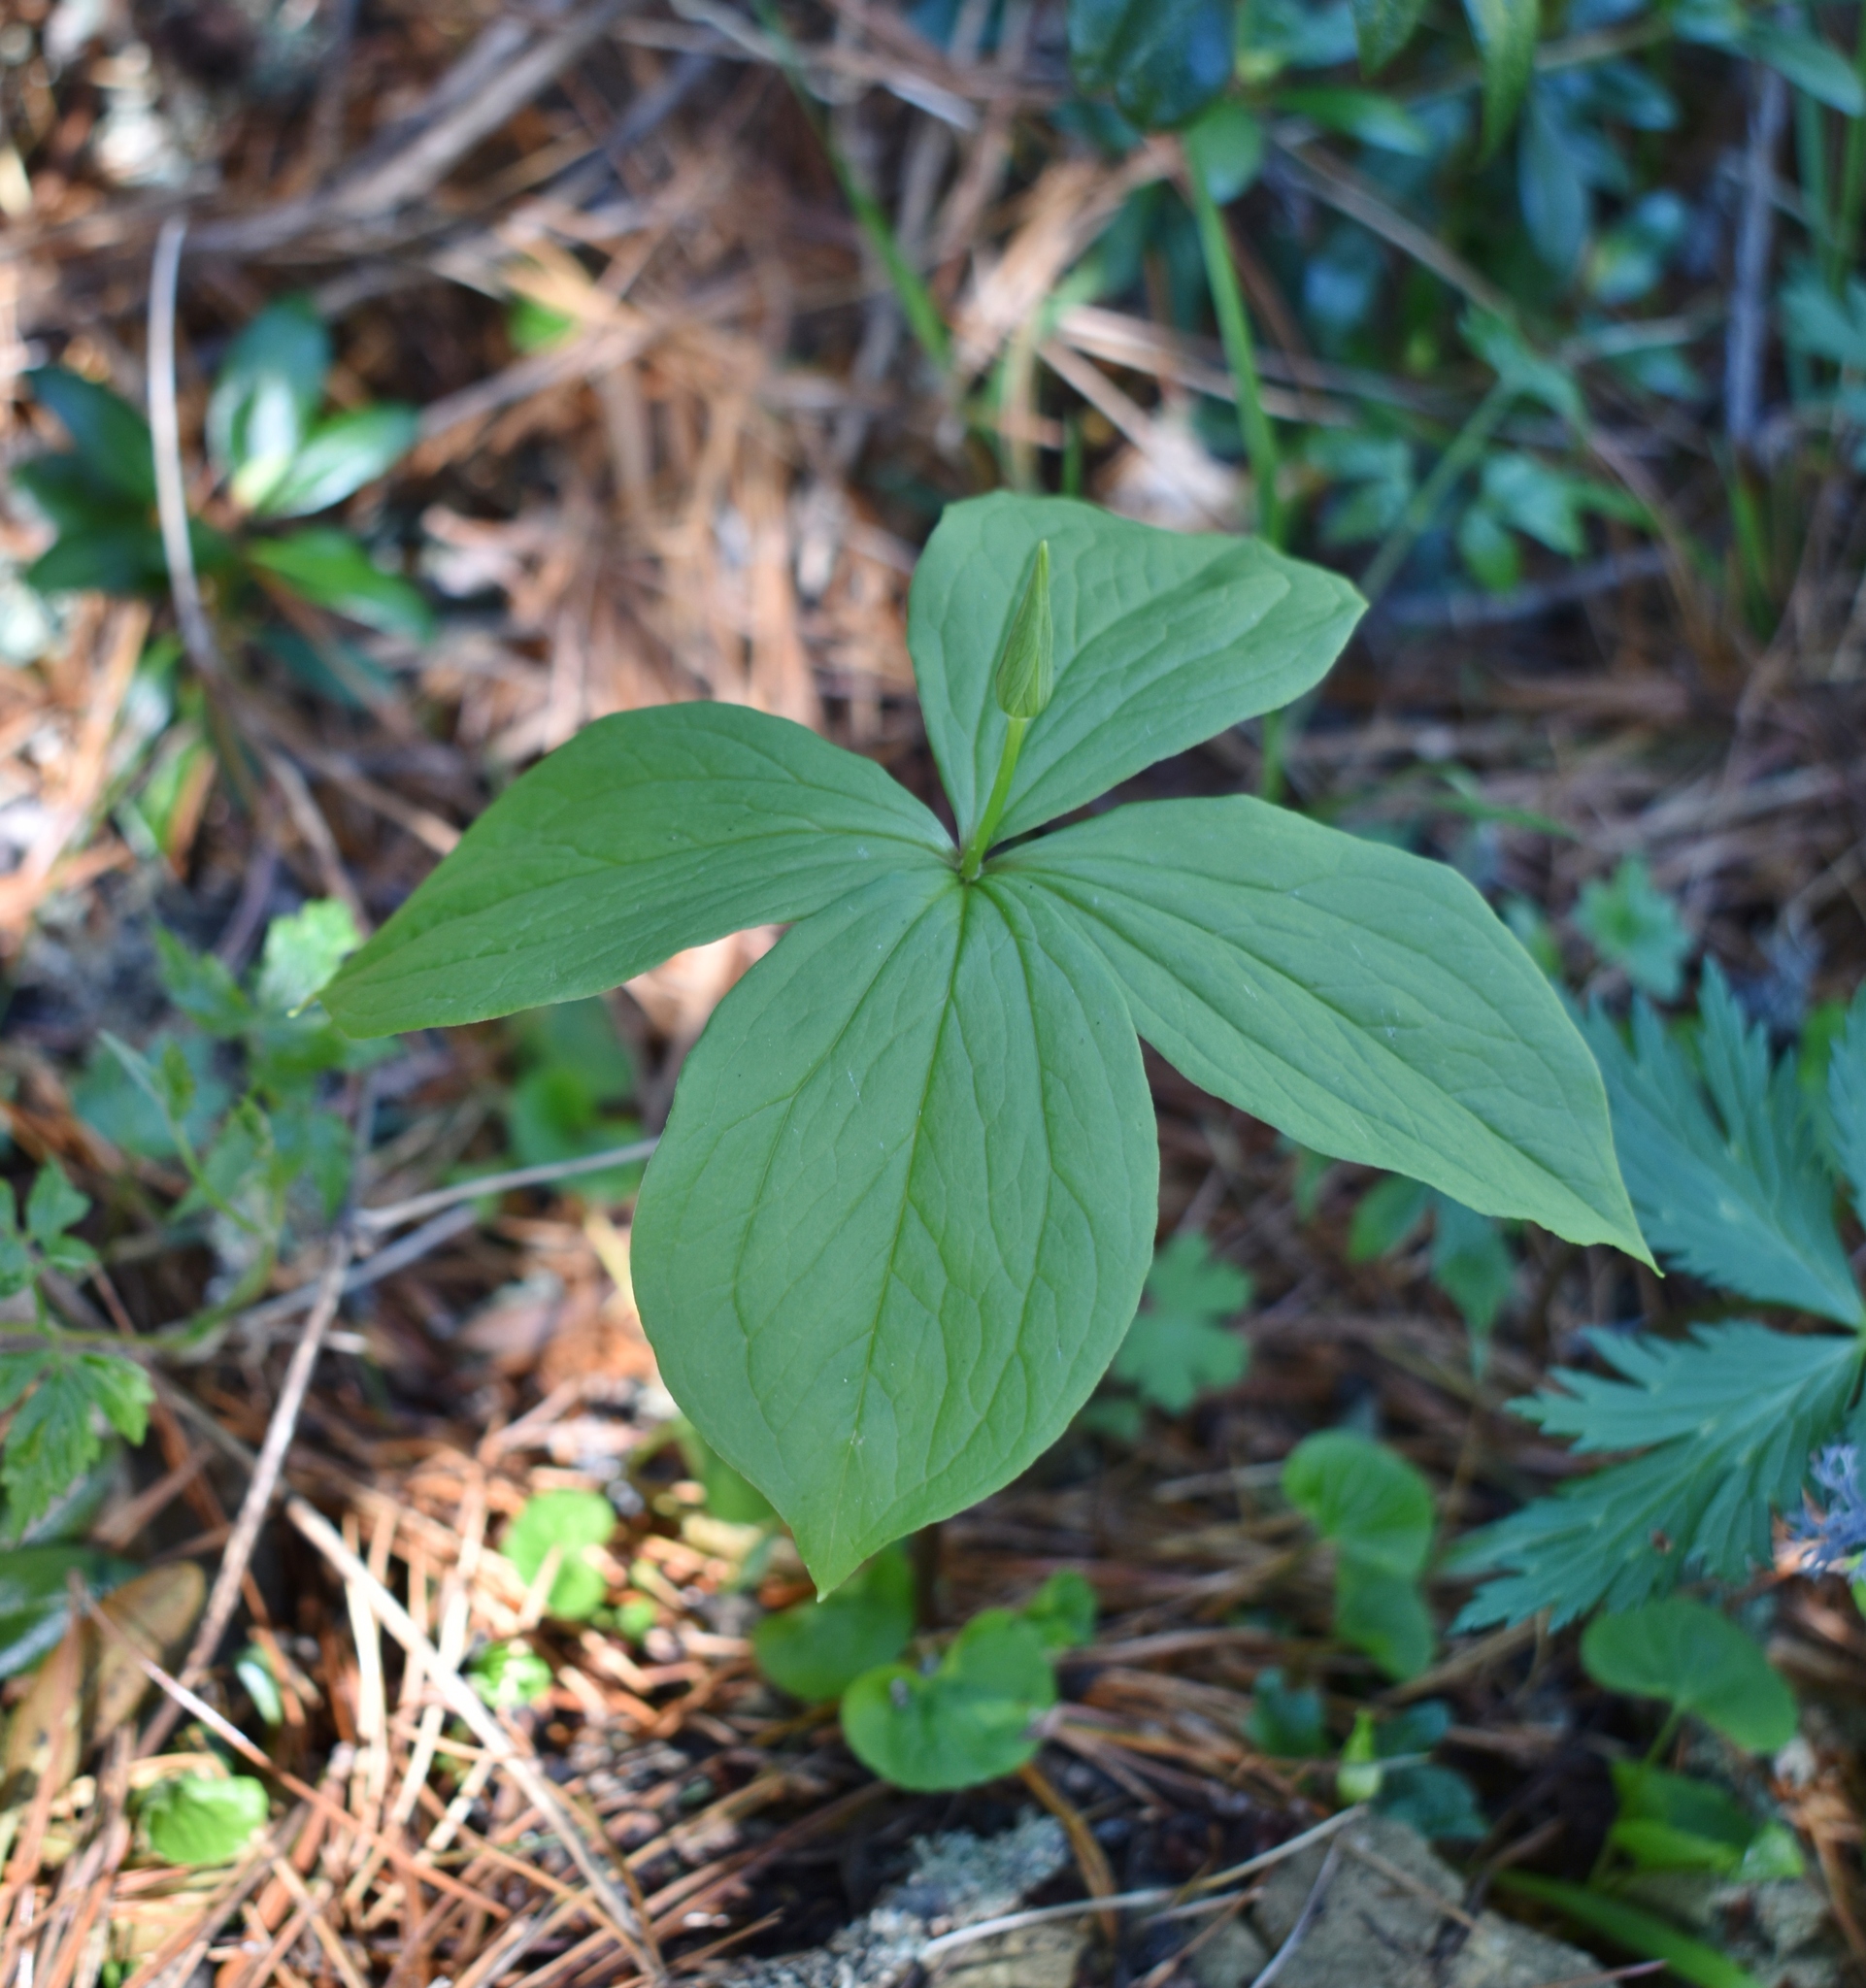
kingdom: Plantae
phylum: Tracheophyta
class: Liliopsida
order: Liliales
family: Melanthiaceae
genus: Paris
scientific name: Paris quadrifolia
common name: Herb-paris
